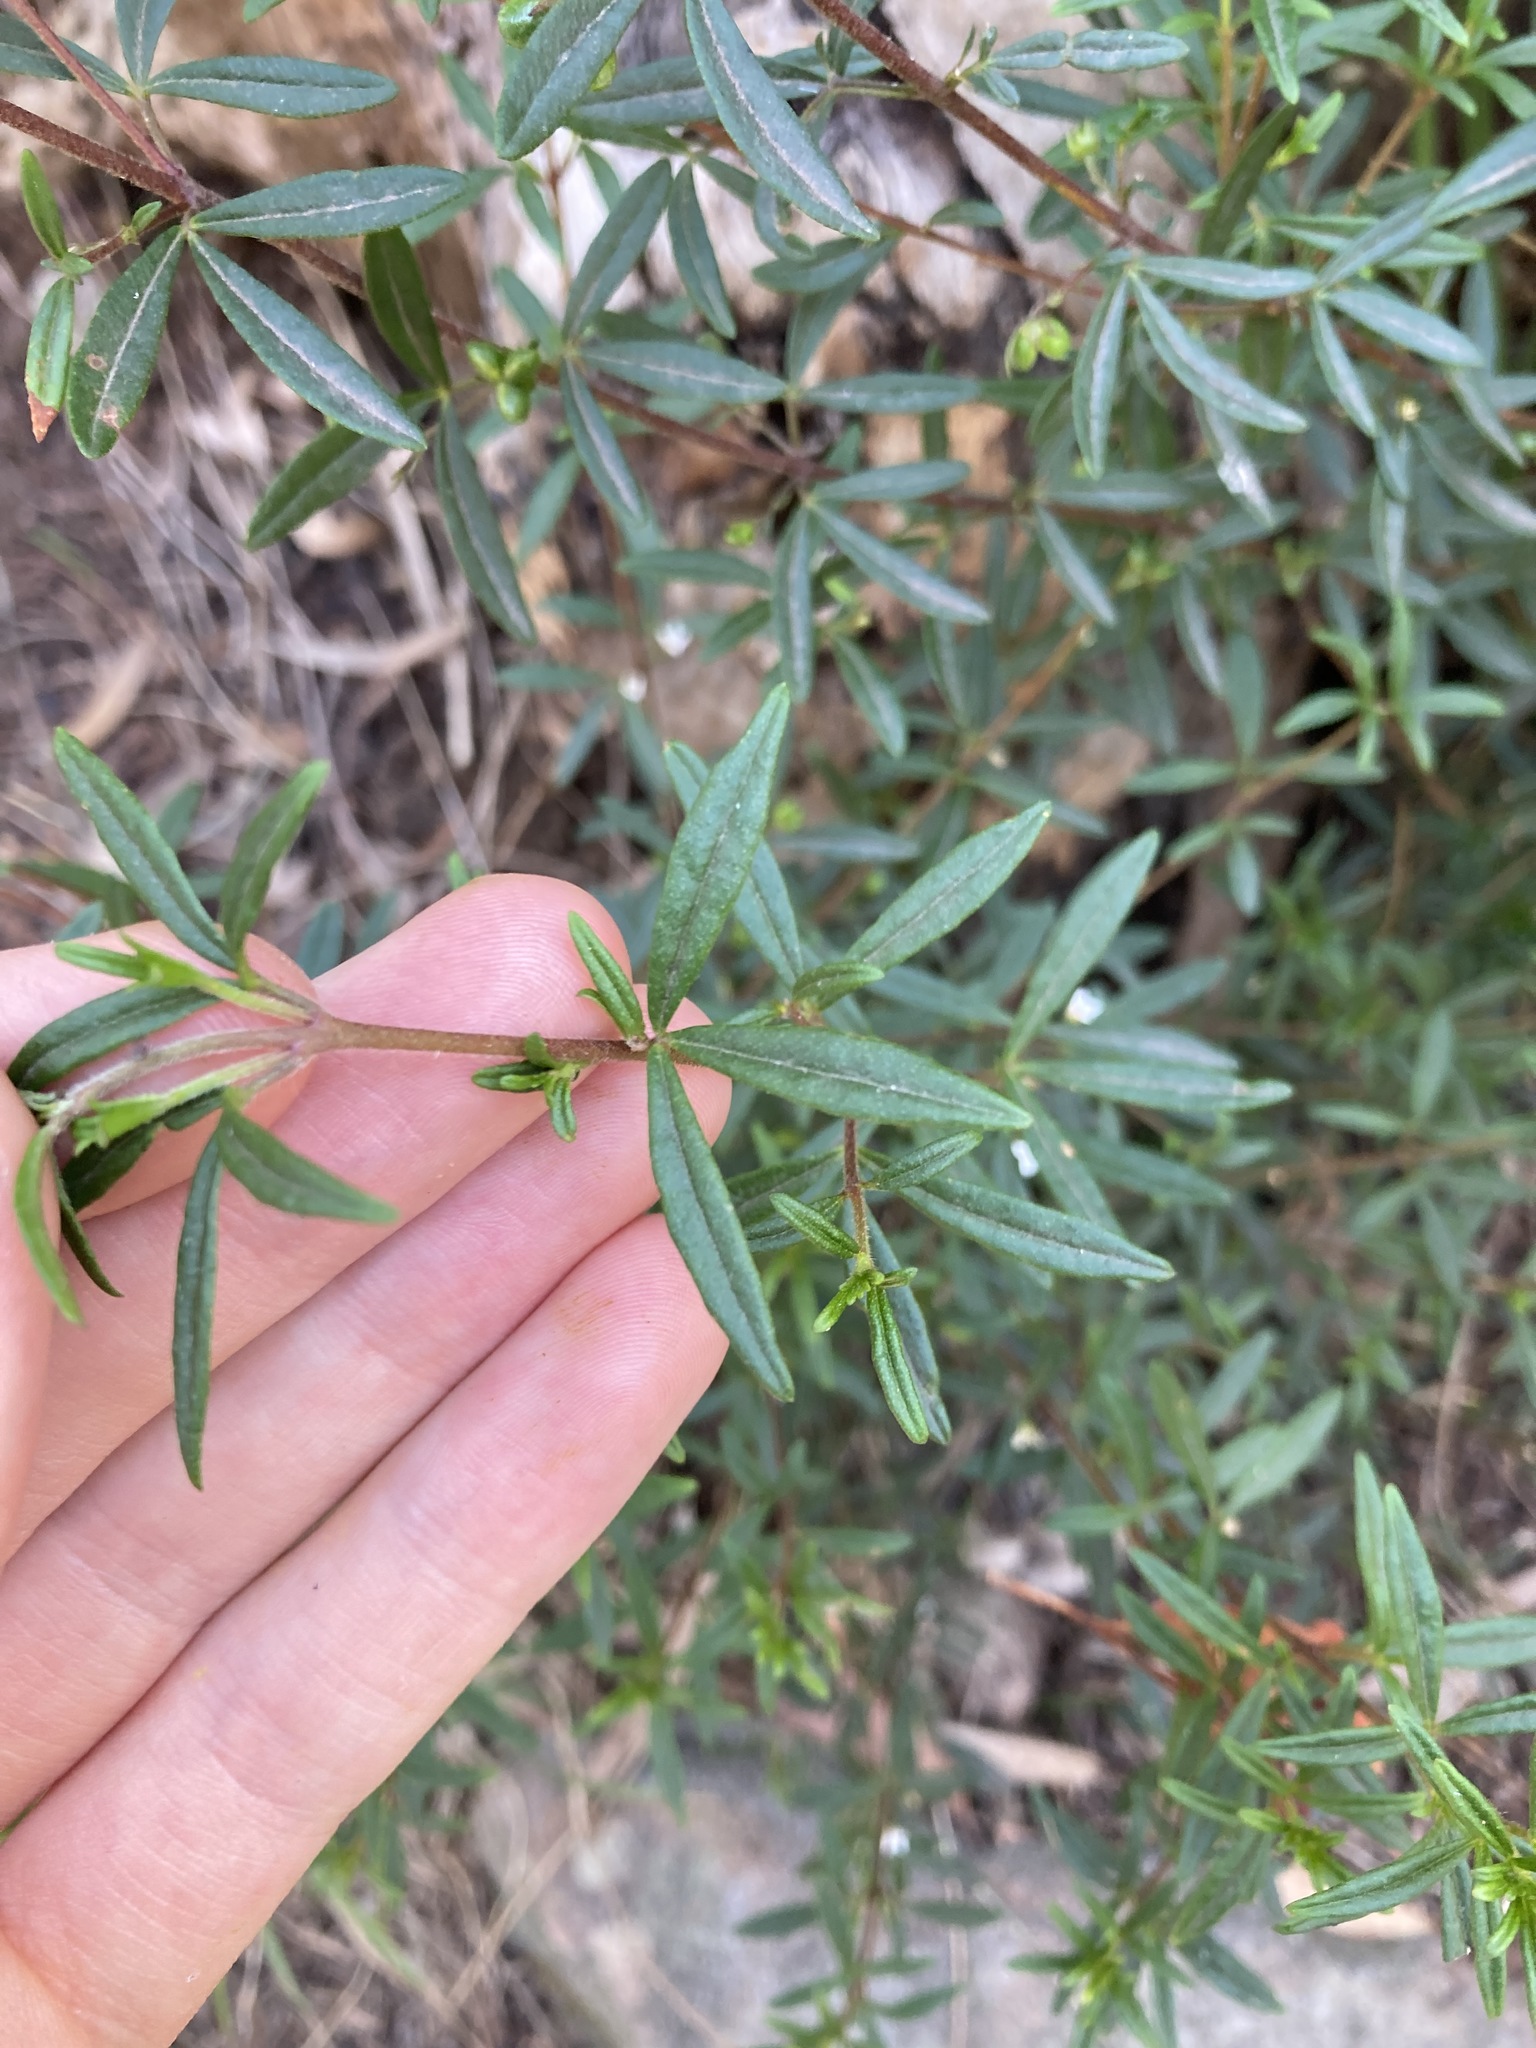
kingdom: Plantae
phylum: Tracheophyta
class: Magnoliopsida
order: Sapindales
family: Rutaceae
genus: Zieria
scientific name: Zieria pilosa
